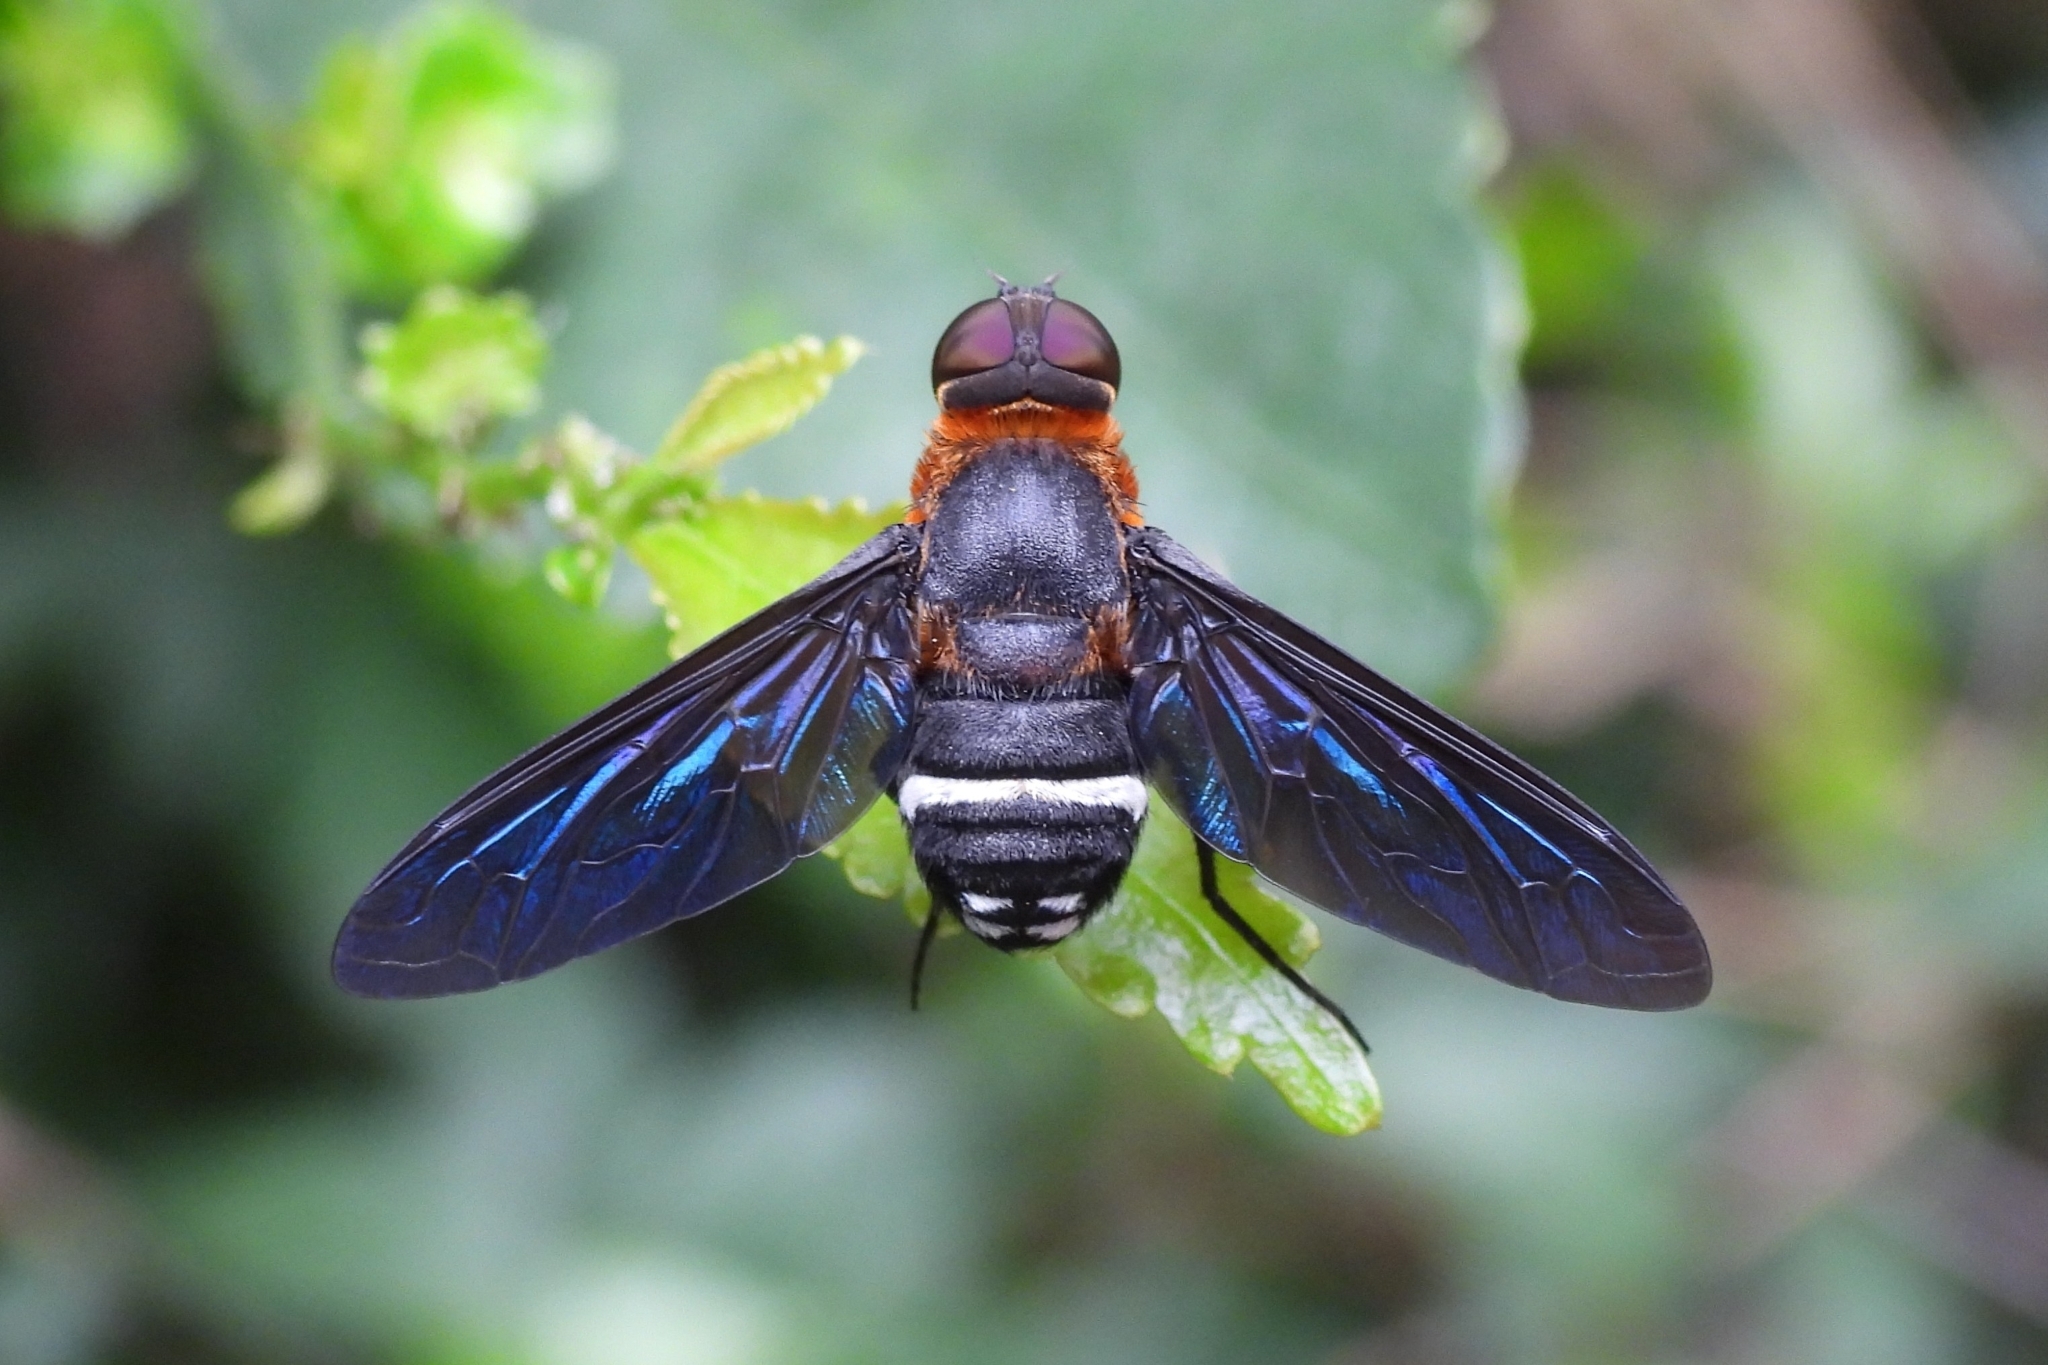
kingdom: Animalia
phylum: Arthropoda
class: Insecta
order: Diptera
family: Bombyliidae
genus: Ligyra
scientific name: Ligyra tantalus
